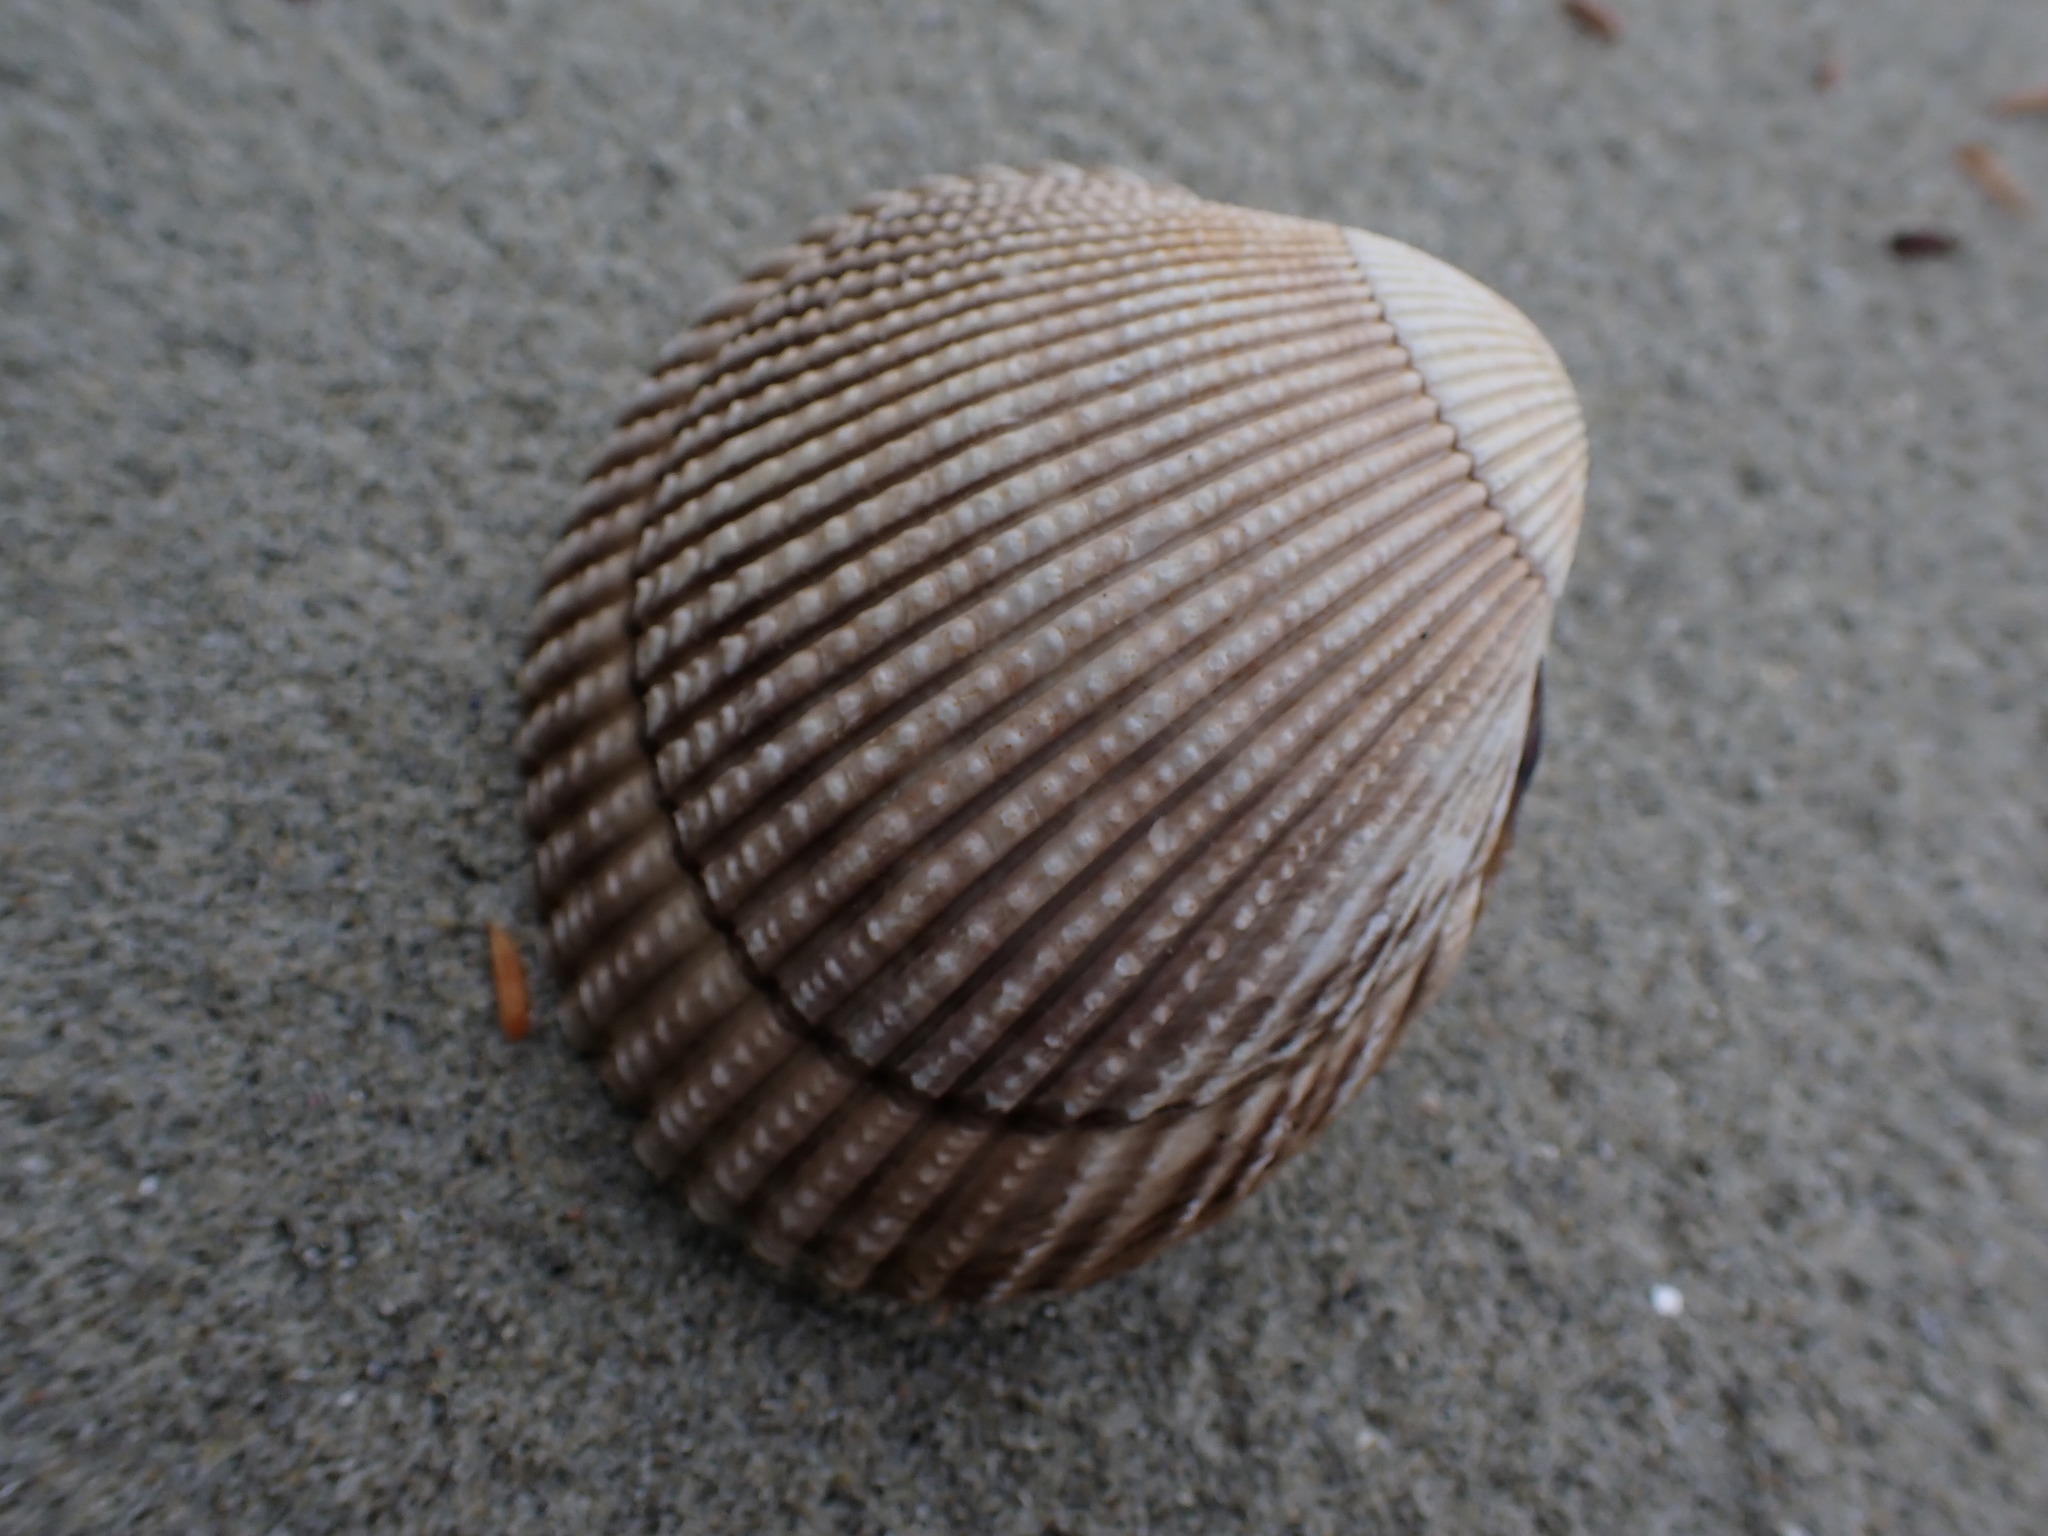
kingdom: Animalia
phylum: Mollusca
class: Bivalvia
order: Cardiida
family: Cardiidae
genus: Clinocardium
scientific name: Clinocardium nuttallii
